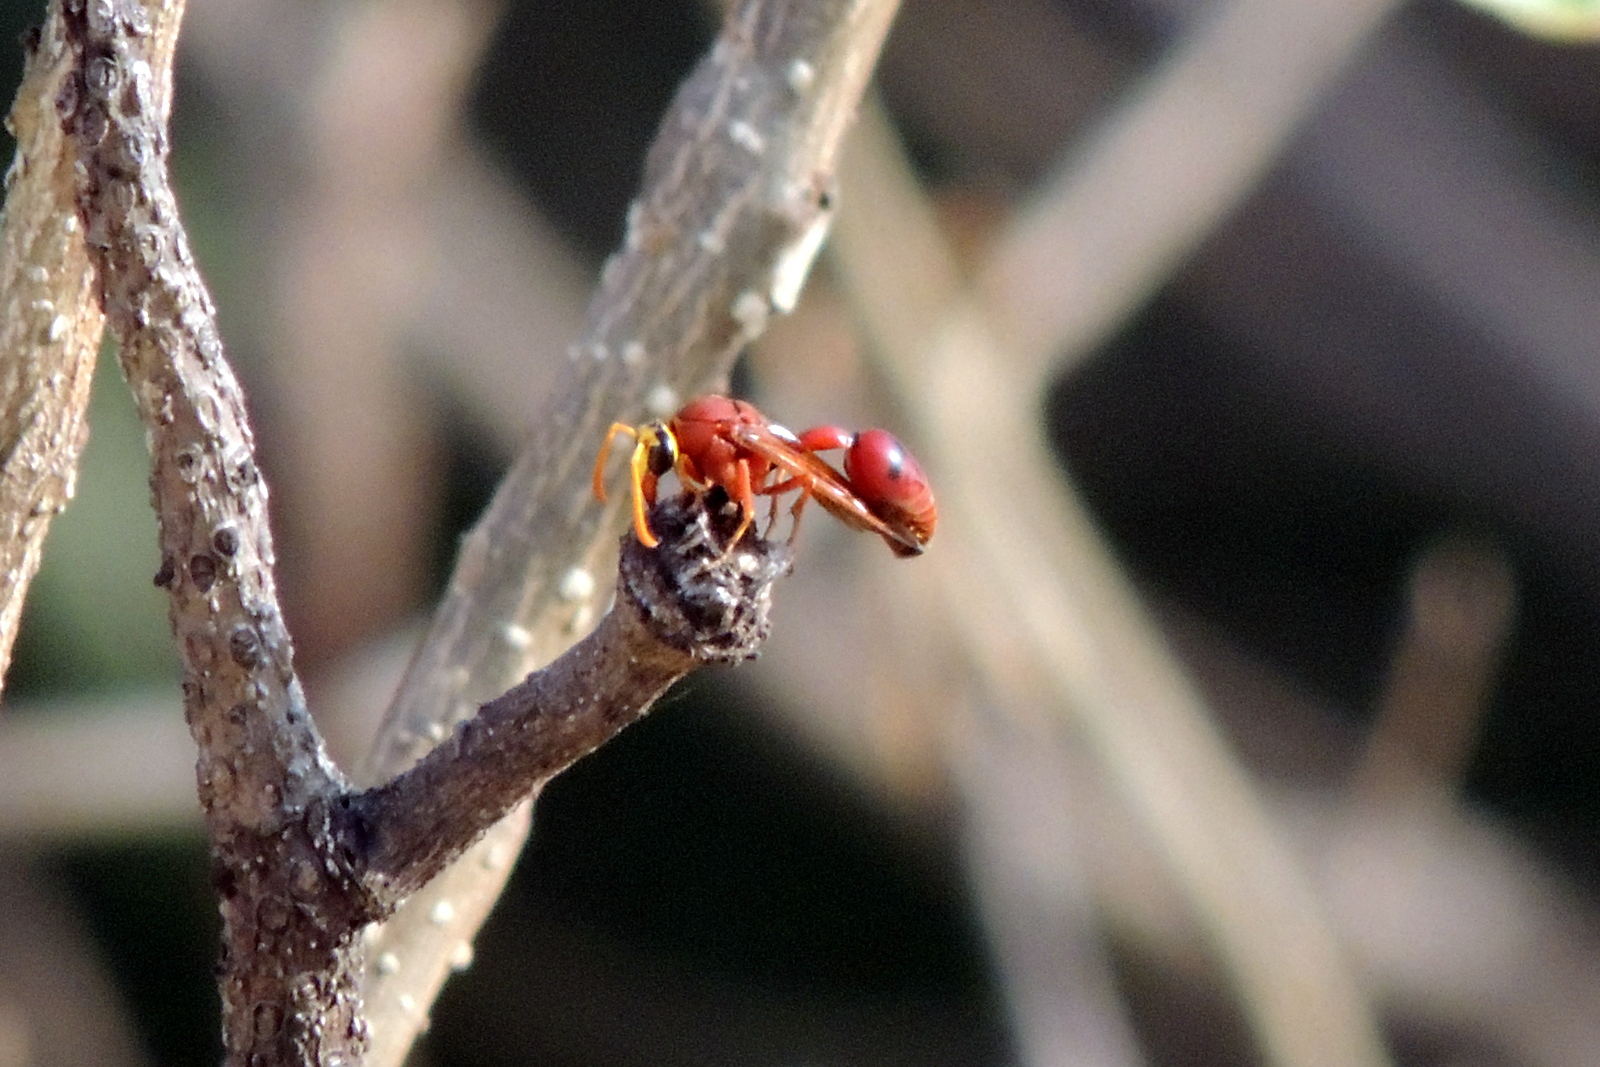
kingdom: Animalia
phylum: Arthropoda
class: Insecta
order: Hymenoptera
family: Eumenidae
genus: Delta
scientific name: Delta conoideum
